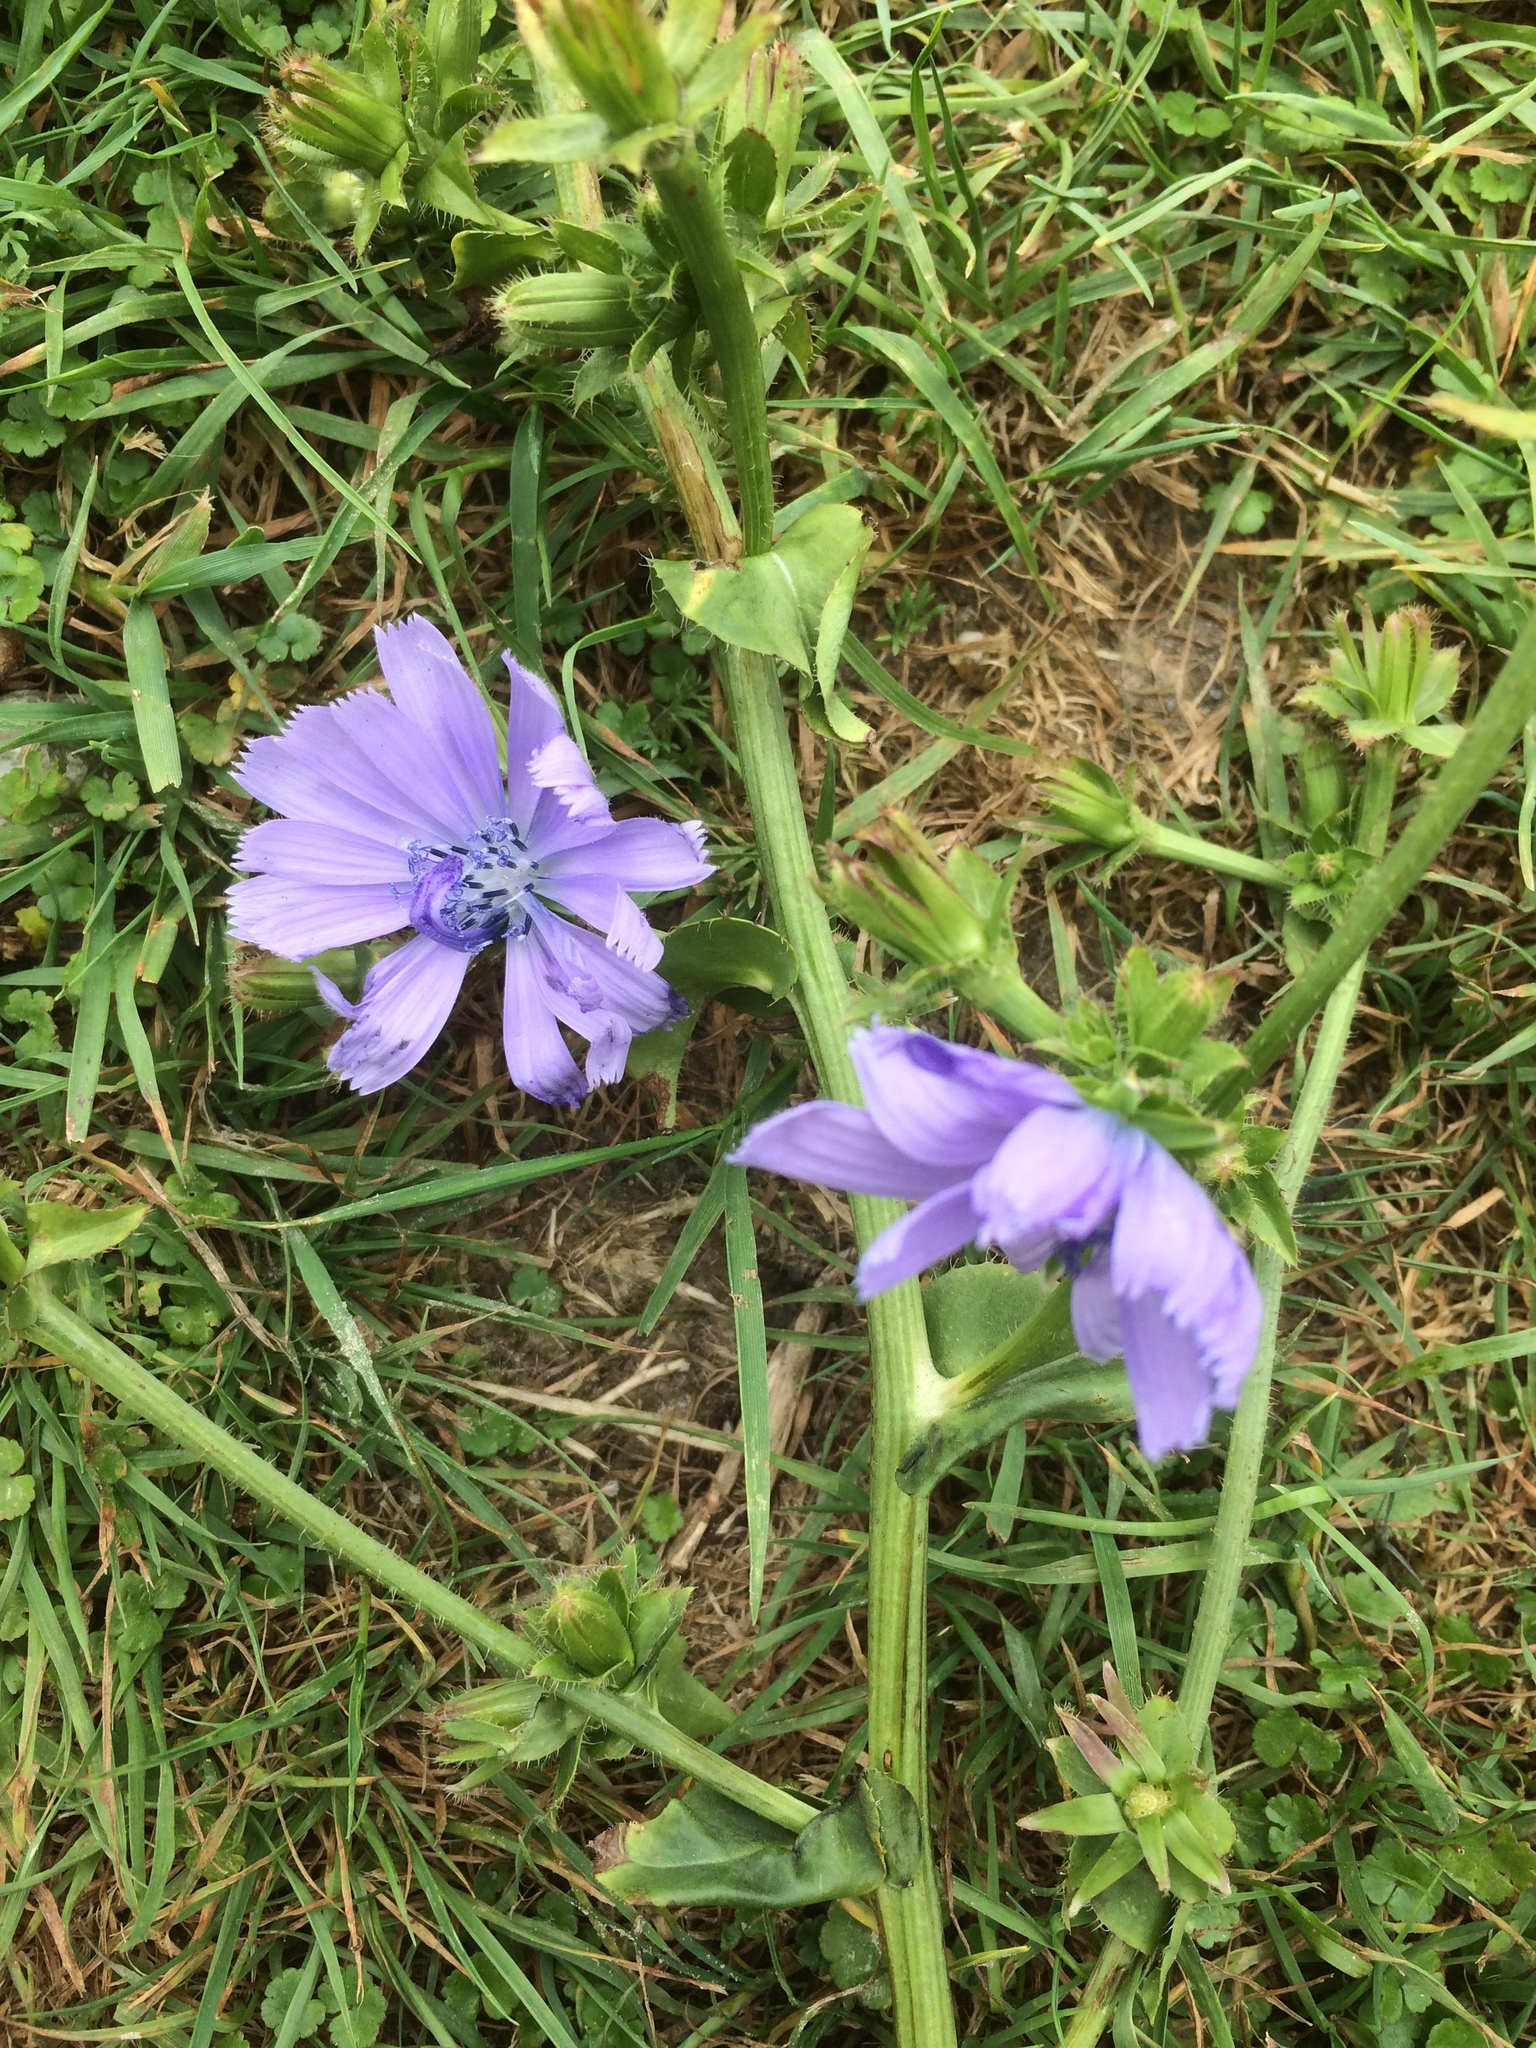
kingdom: Plantae
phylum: Tracheophyta
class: Magnoliopsida
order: Asterales
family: Asteraceae
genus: Cichorium
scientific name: Cichorium intybus
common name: Chicory
